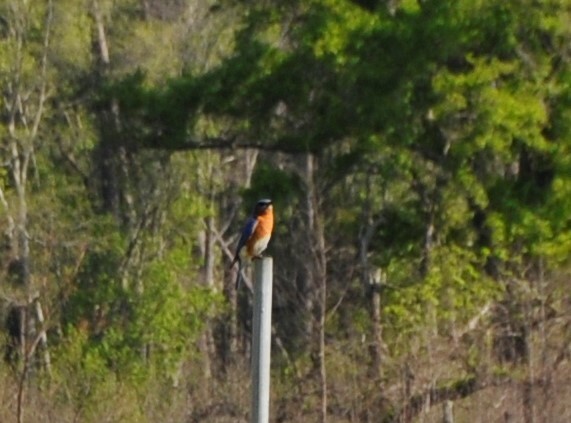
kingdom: Animalia
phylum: Chordata
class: Aves
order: Passeriformes
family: Turdidae
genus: Sialia
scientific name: Sialia sialis
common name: Eastern bluebird
